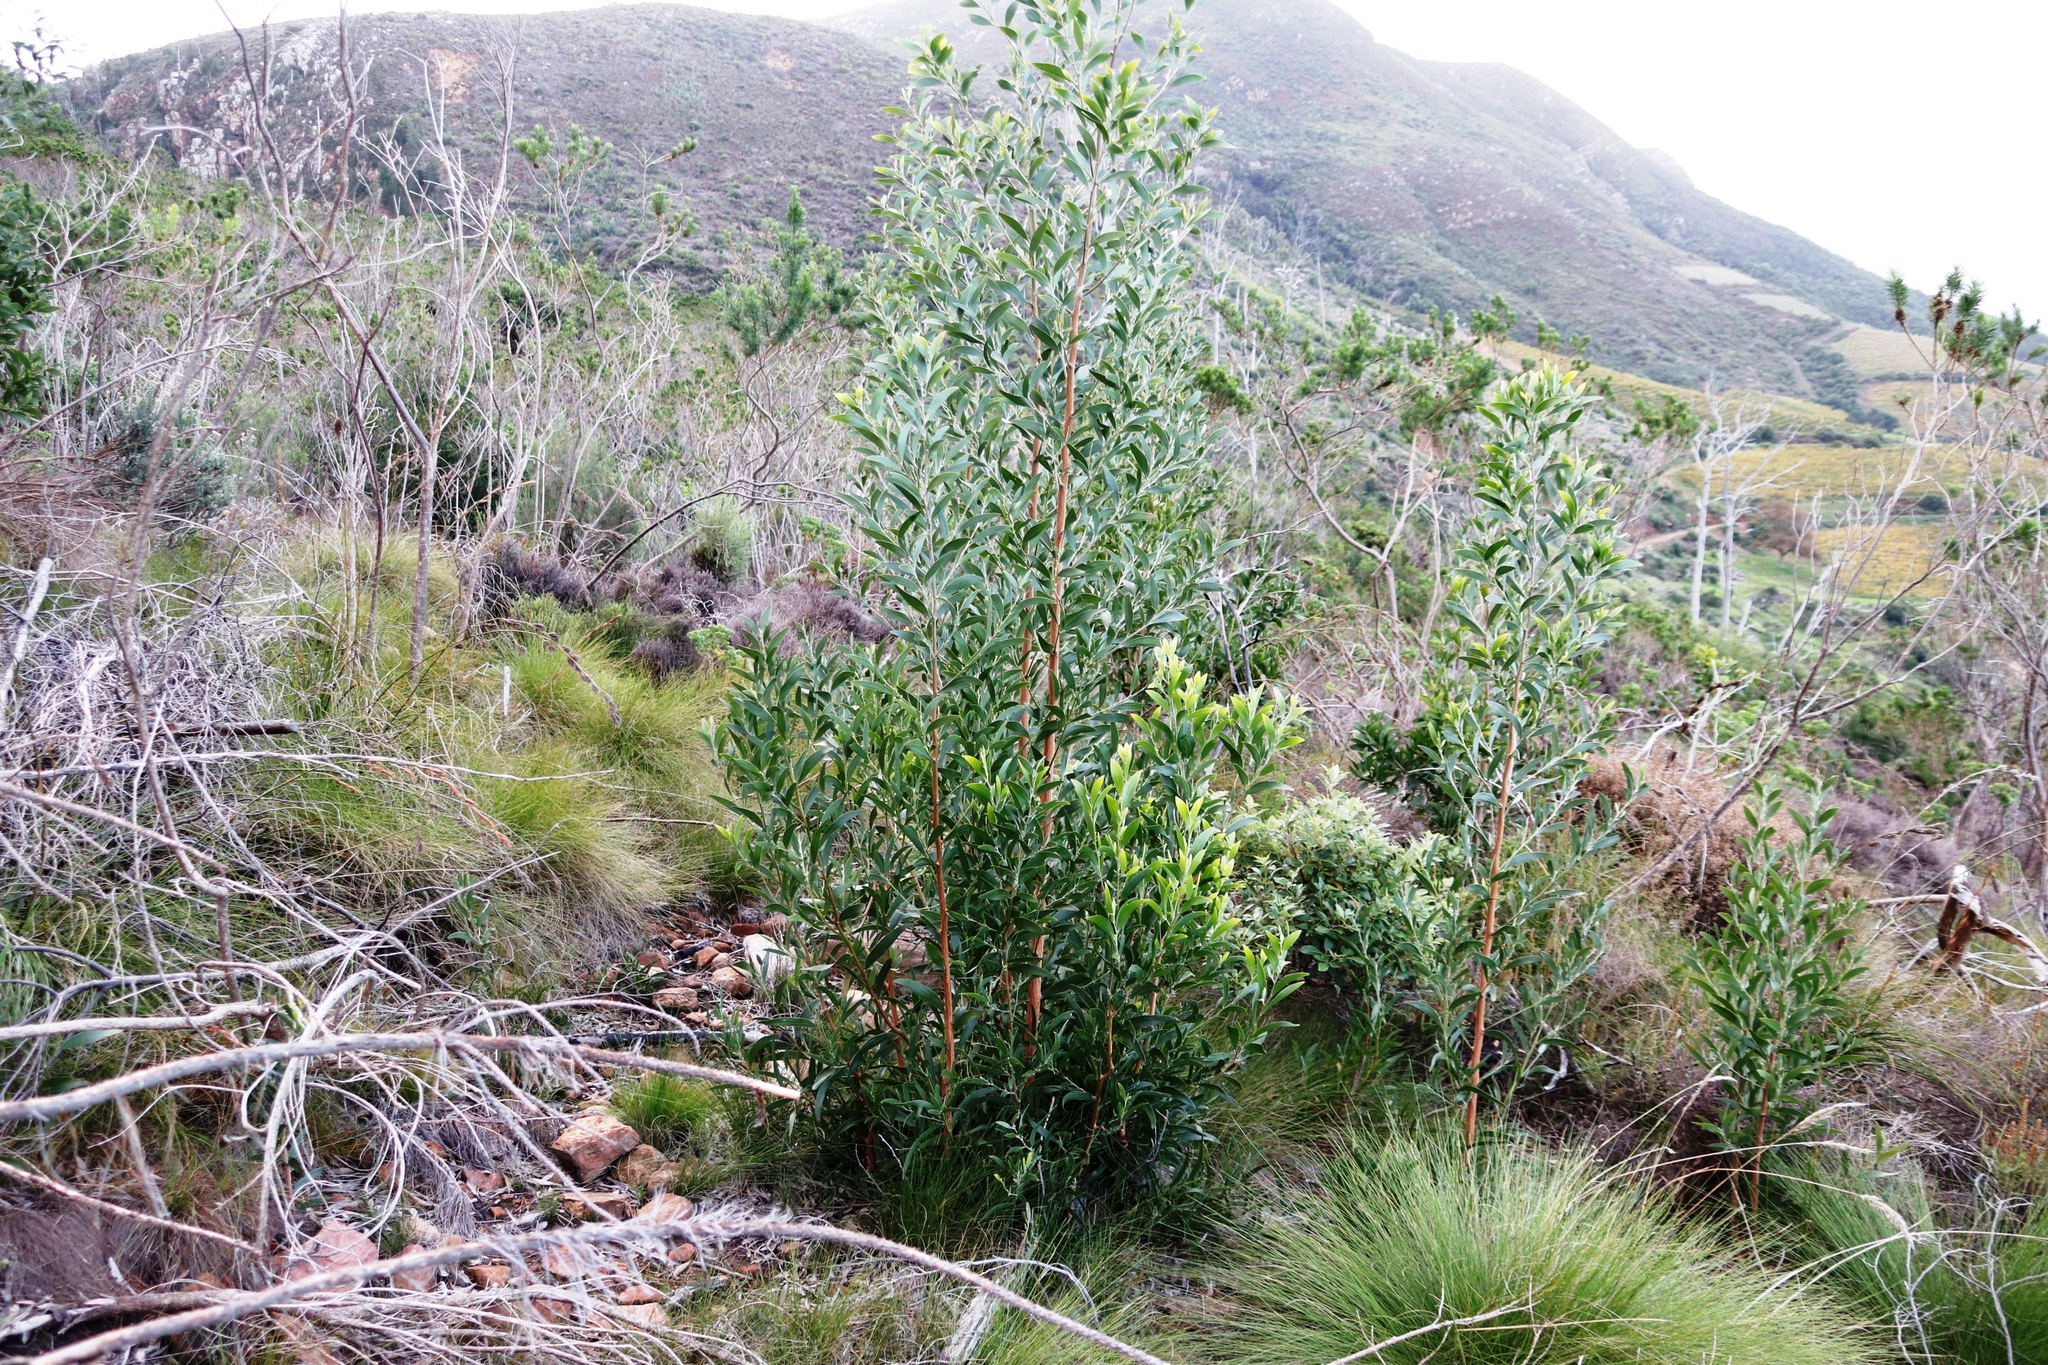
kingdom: Plantae
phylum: Tracheophyta
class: Magnoliopsida
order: Fabales
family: Fabaceae
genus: Acacia
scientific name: Acacia melanoxylon
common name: Blackwood
